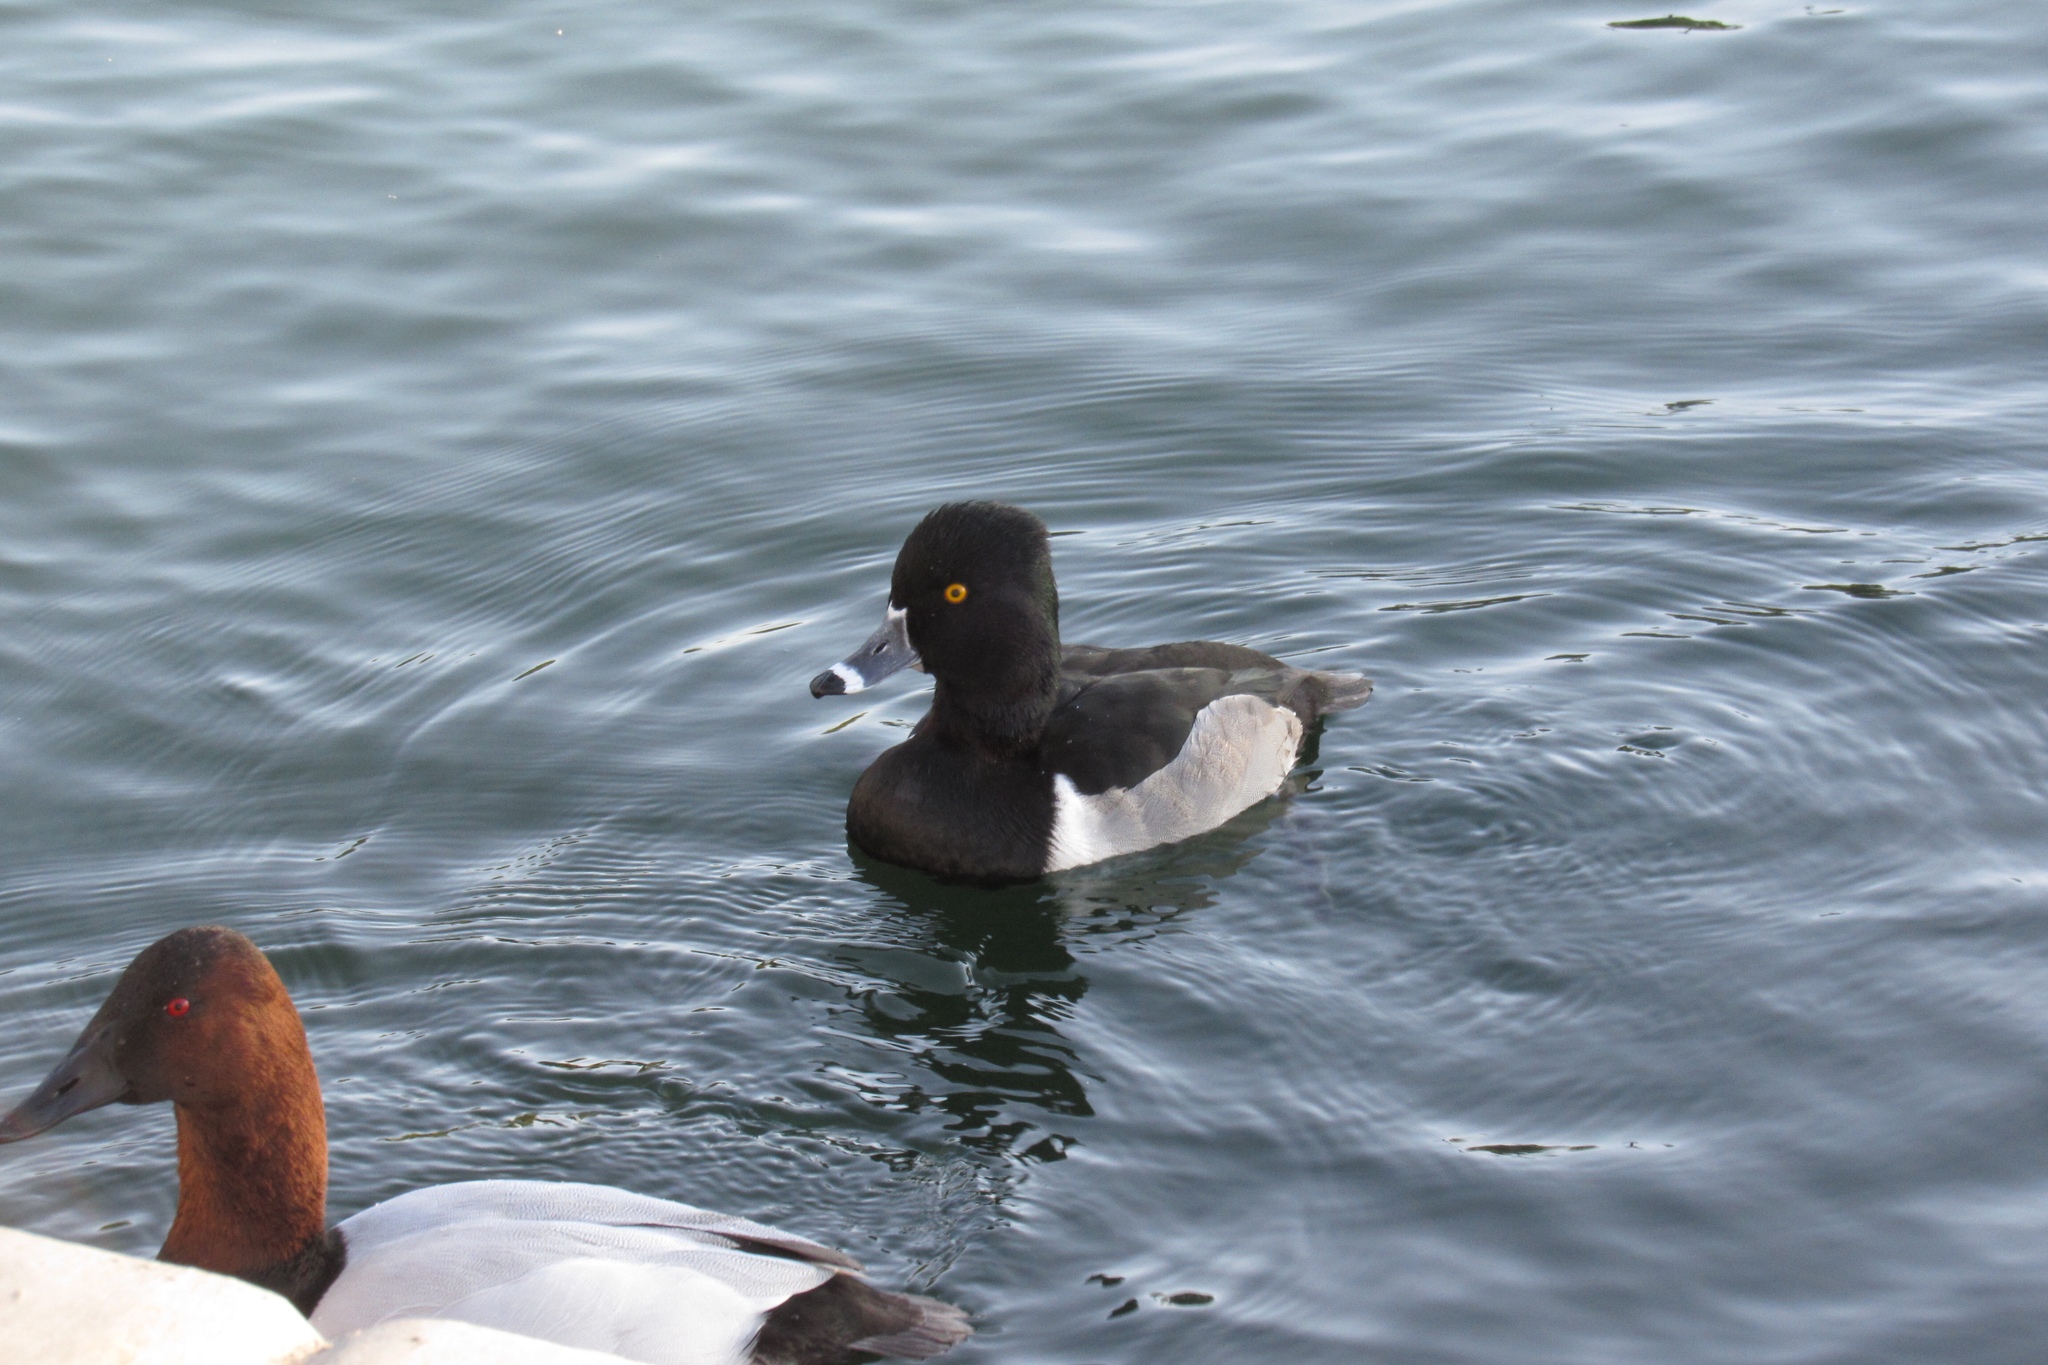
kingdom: Animalia
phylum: Chordata
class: Aves
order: Anseriformes
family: Anatidae
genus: Aythya
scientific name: Aythya collaris
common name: Ring-necked duck
